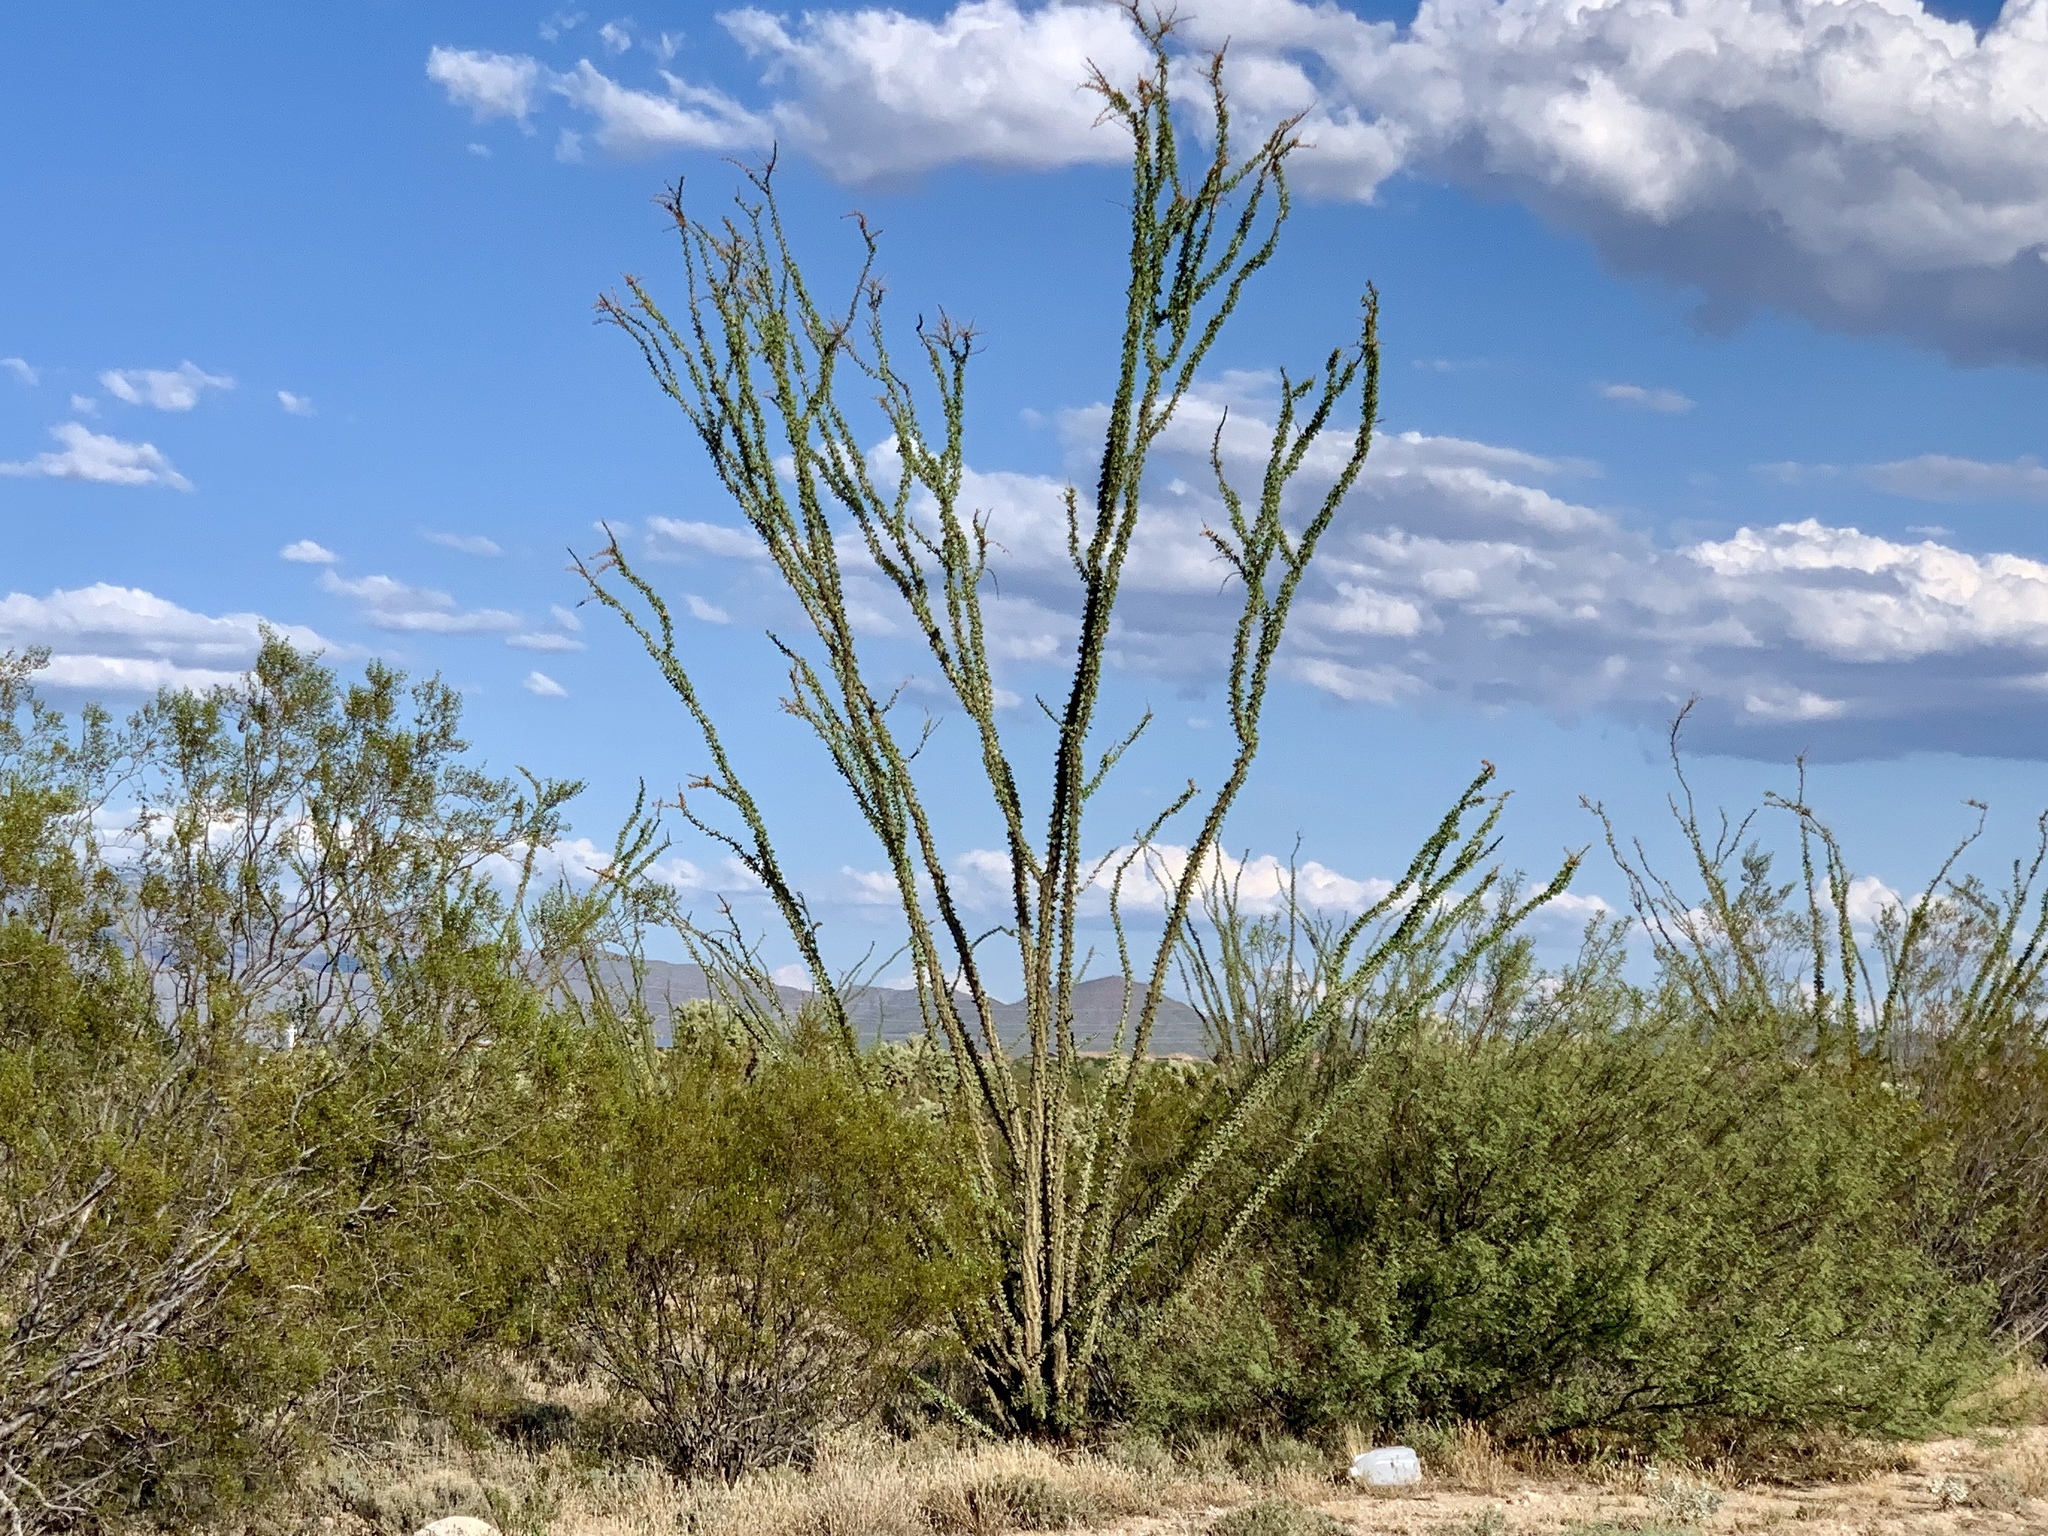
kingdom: Plantae
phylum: Tracheophyta
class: Magnoliopsida
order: Ericales
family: Fouquieriaceae
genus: Fouquieria
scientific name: Fouquieria splendens
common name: Vine-cactus
